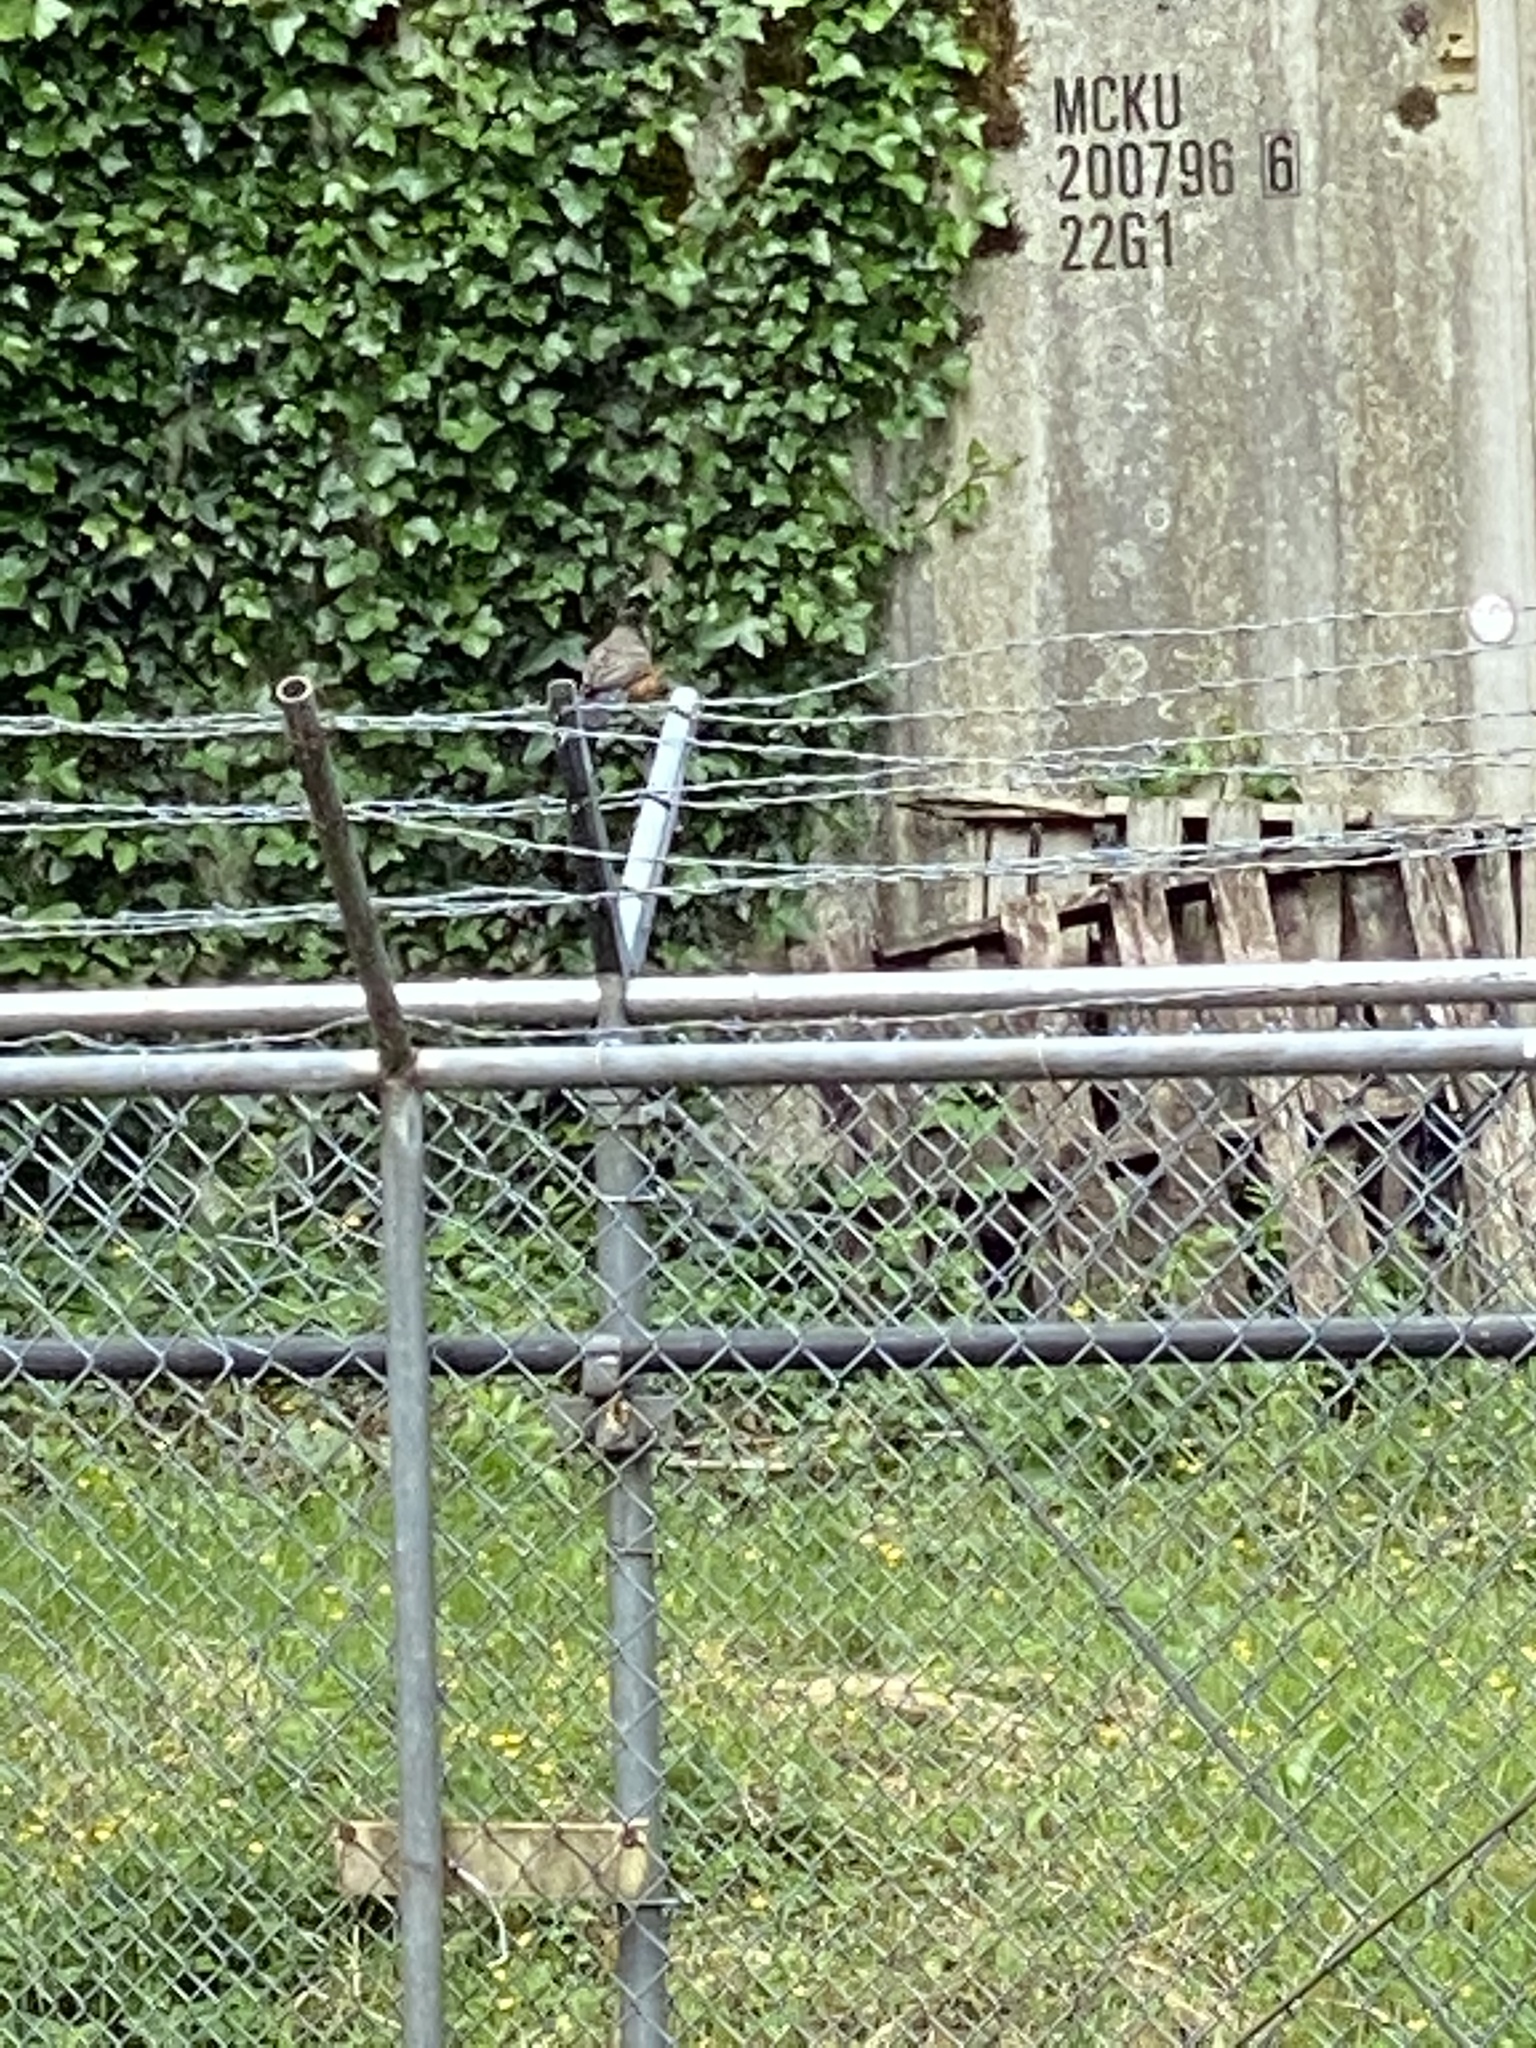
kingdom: Animalia
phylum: Chordata
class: Aves
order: Passeriformes
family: Turdidae
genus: Turdus
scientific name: Turdus migratorius
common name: American robin
